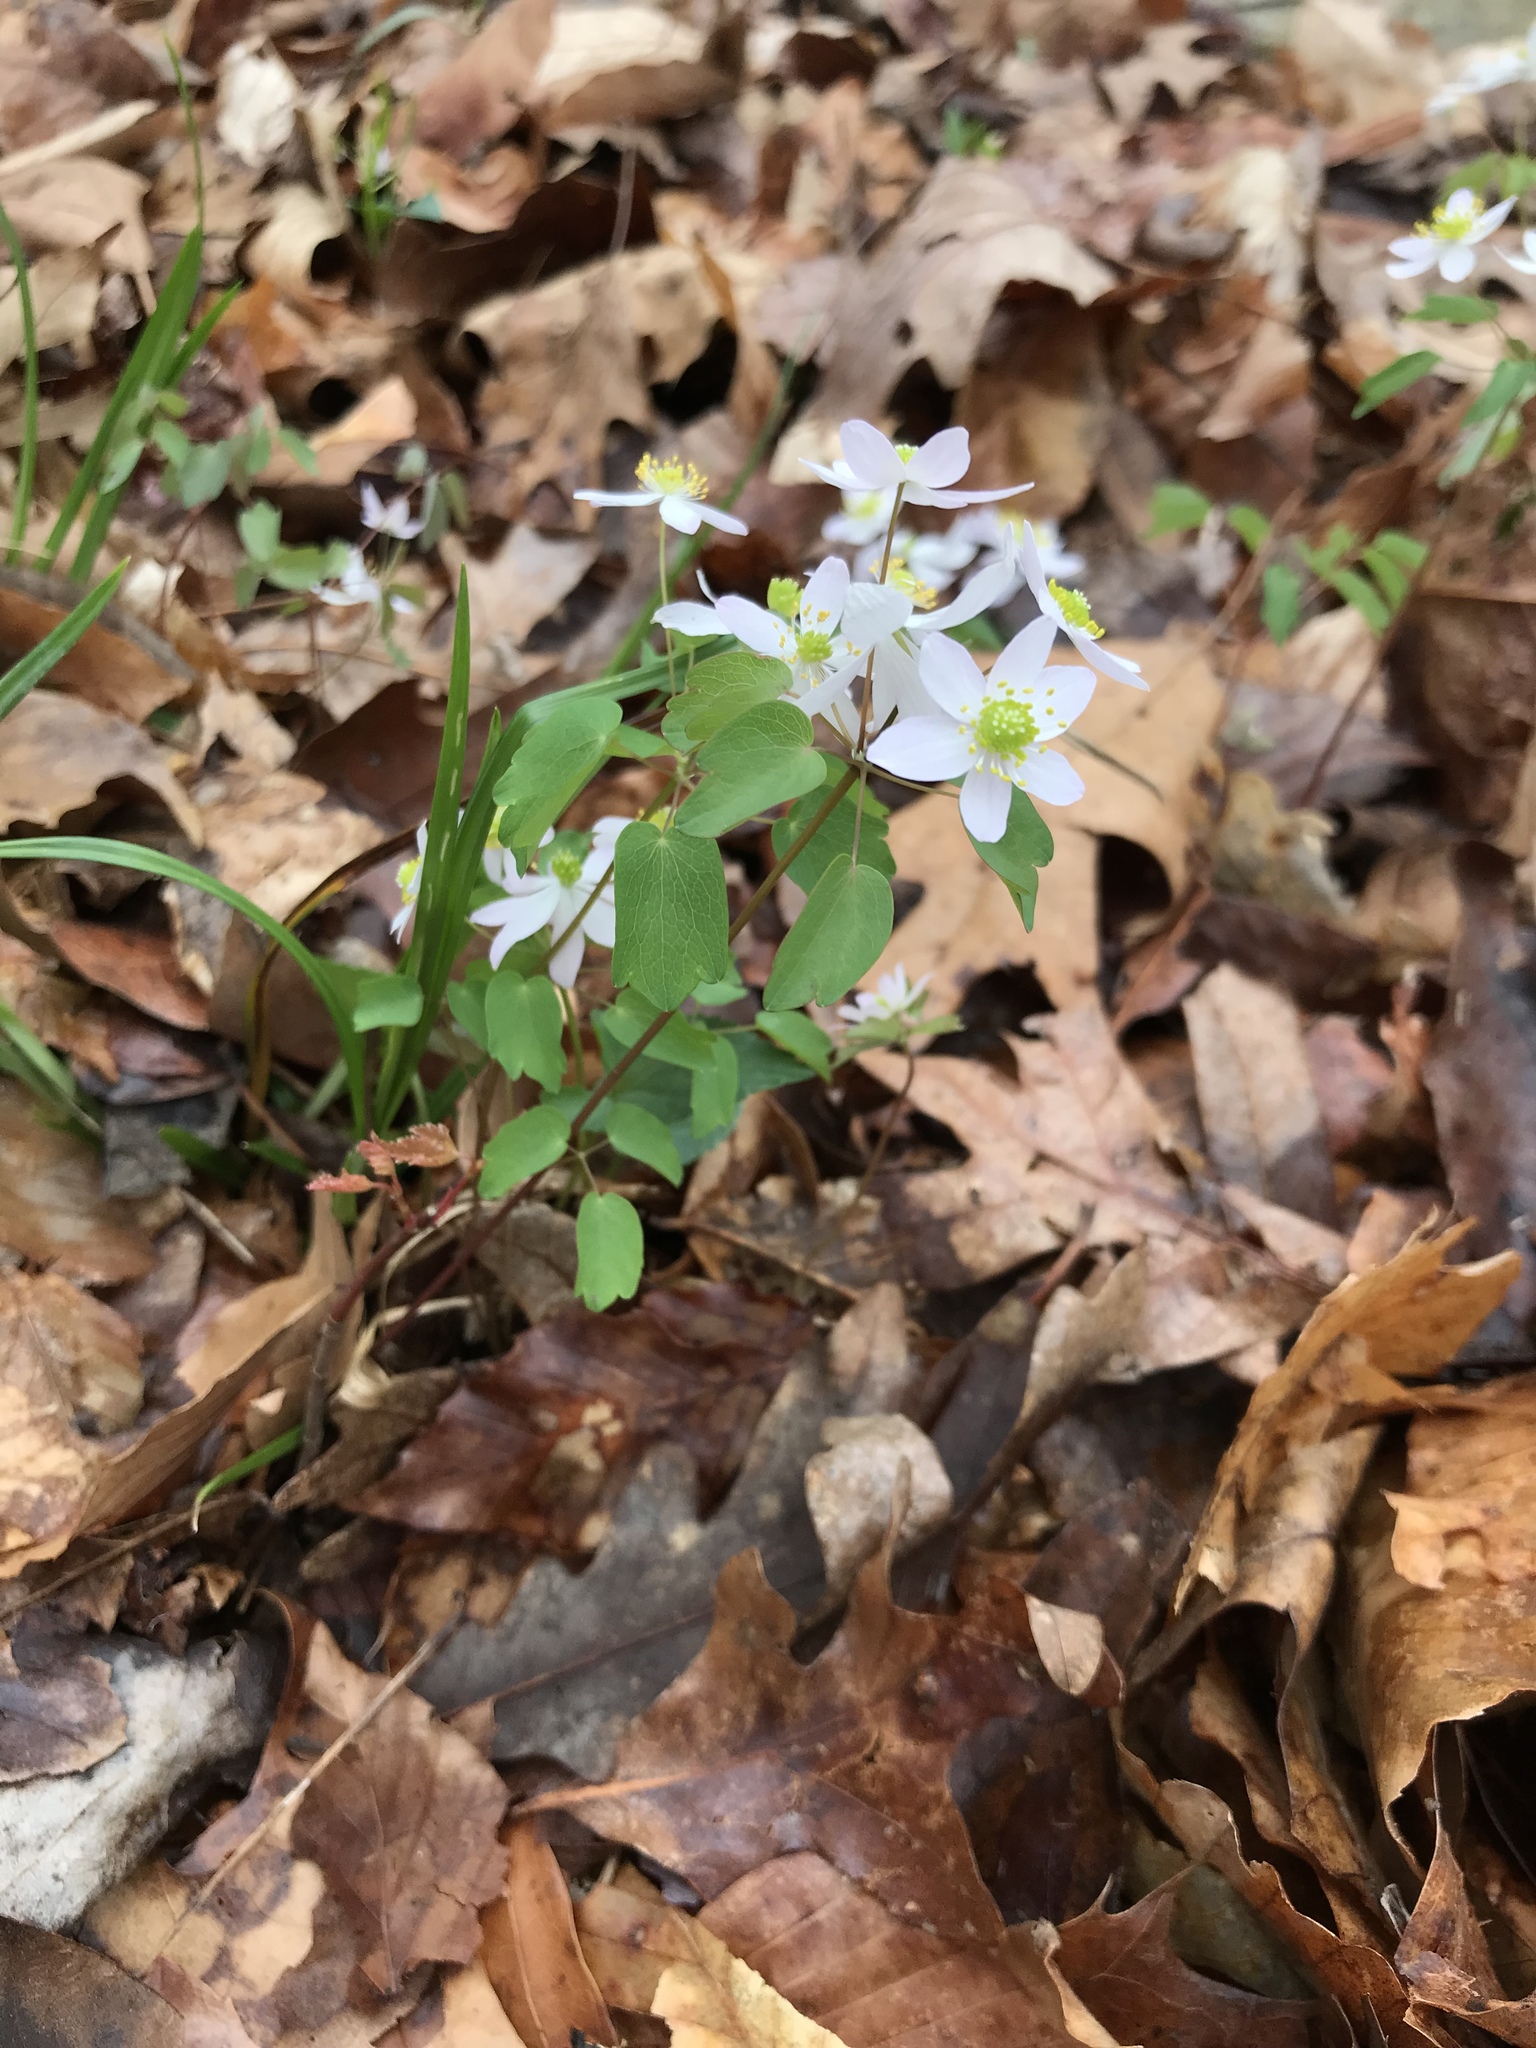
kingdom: Plantae
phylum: Tracheophyta
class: Magnoliopsida
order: Ranunculales
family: Ranunculaceae
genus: Thalictrum
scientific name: Thalictrum thalictroides
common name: Rue-anemone
